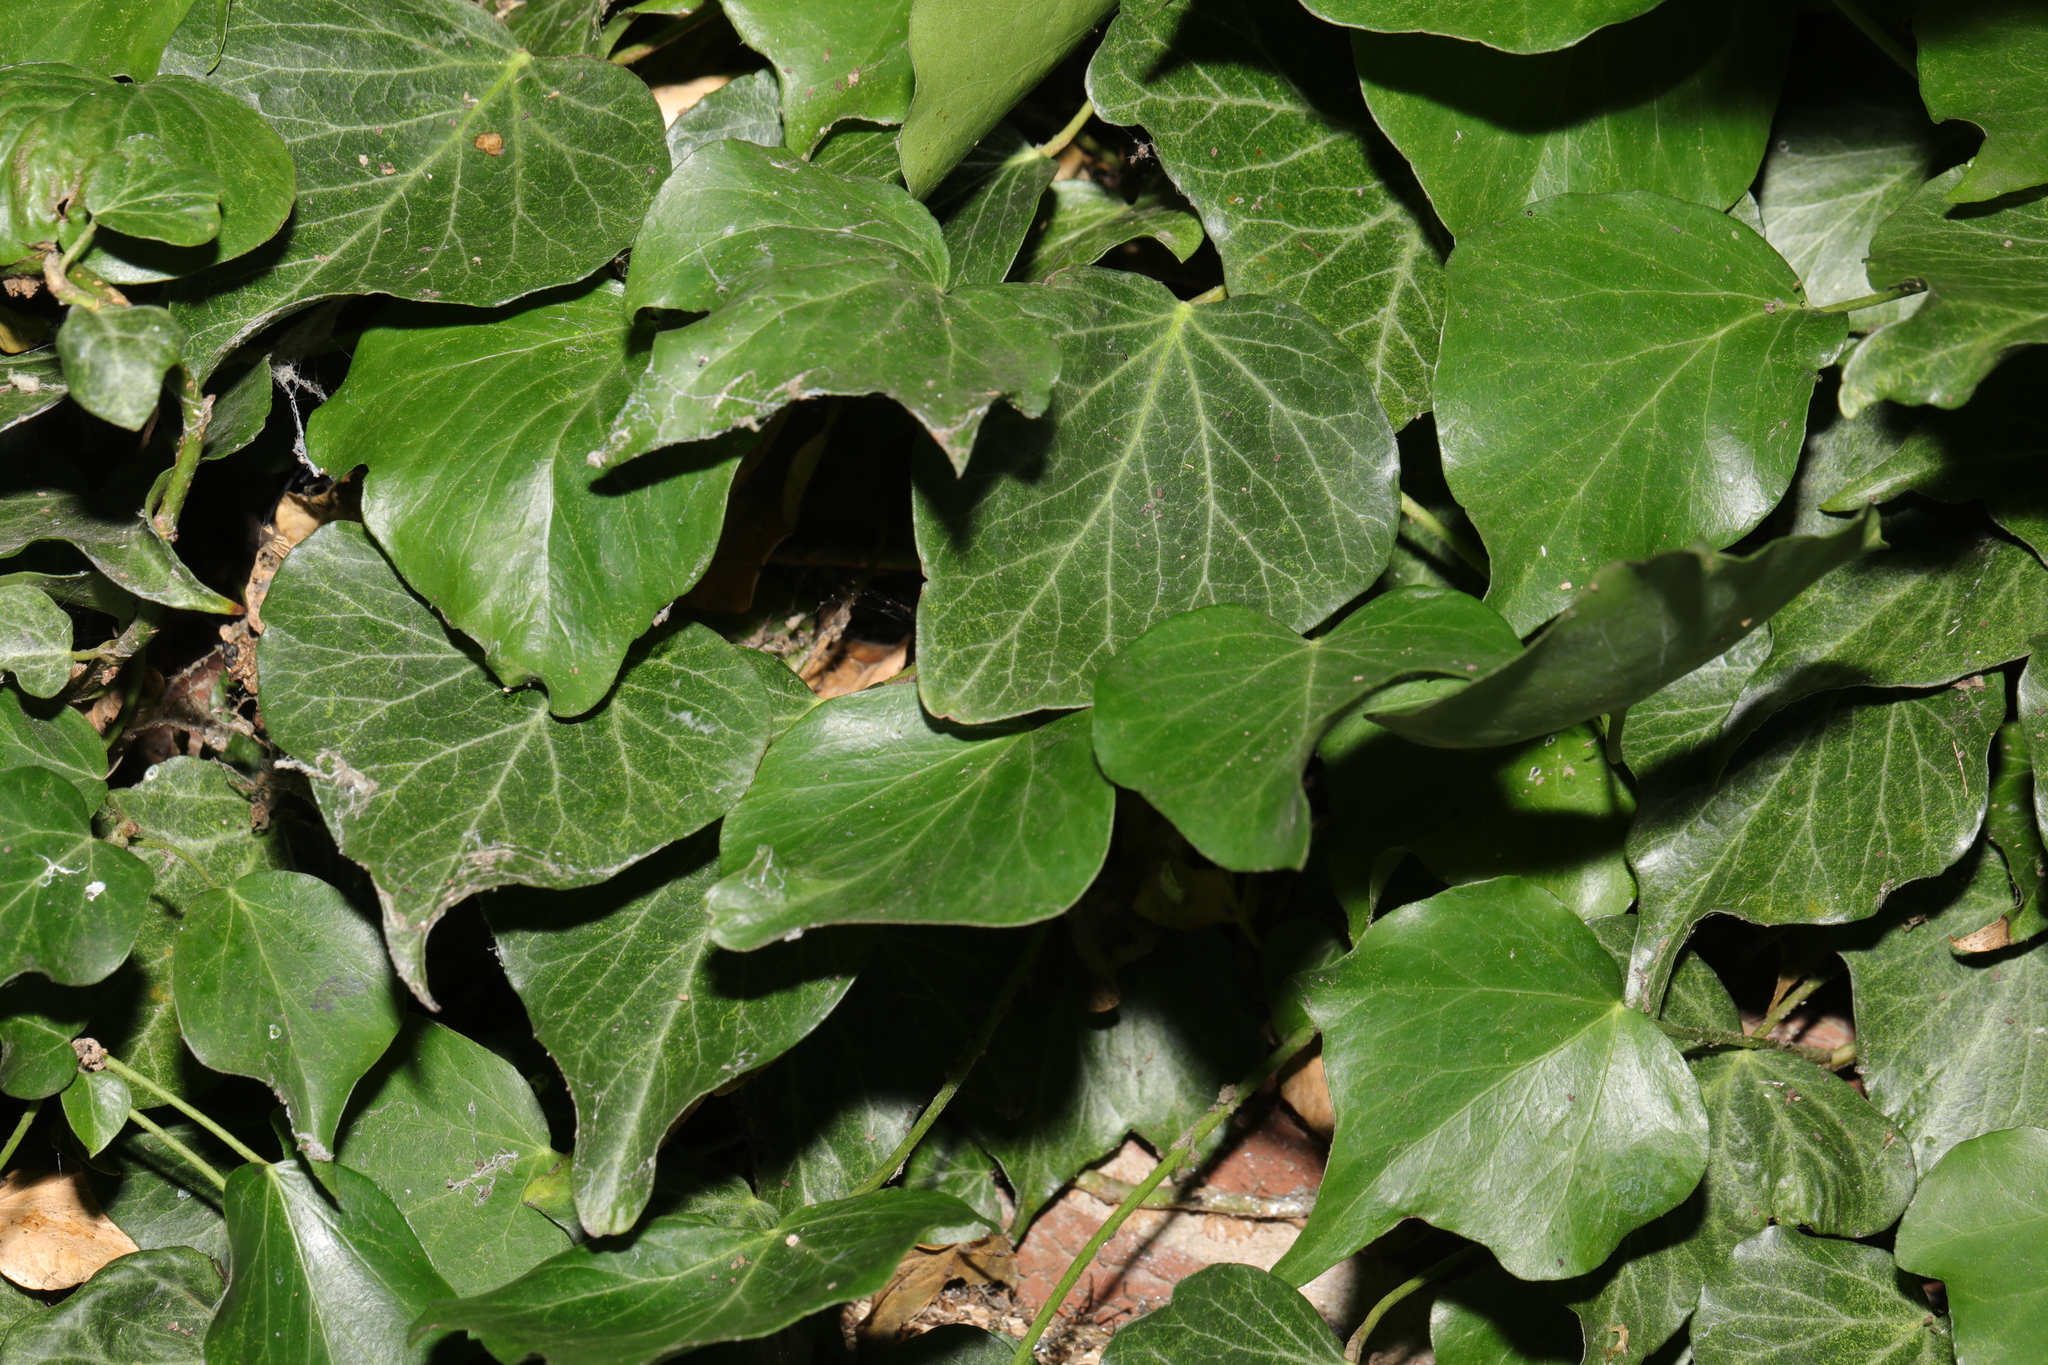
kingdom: Plantae
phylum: Tracheophyta
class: Magnoliopsida
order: Apiales
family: Araliaceae
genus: Hedera
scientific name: Hedera helix
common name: Ivy
